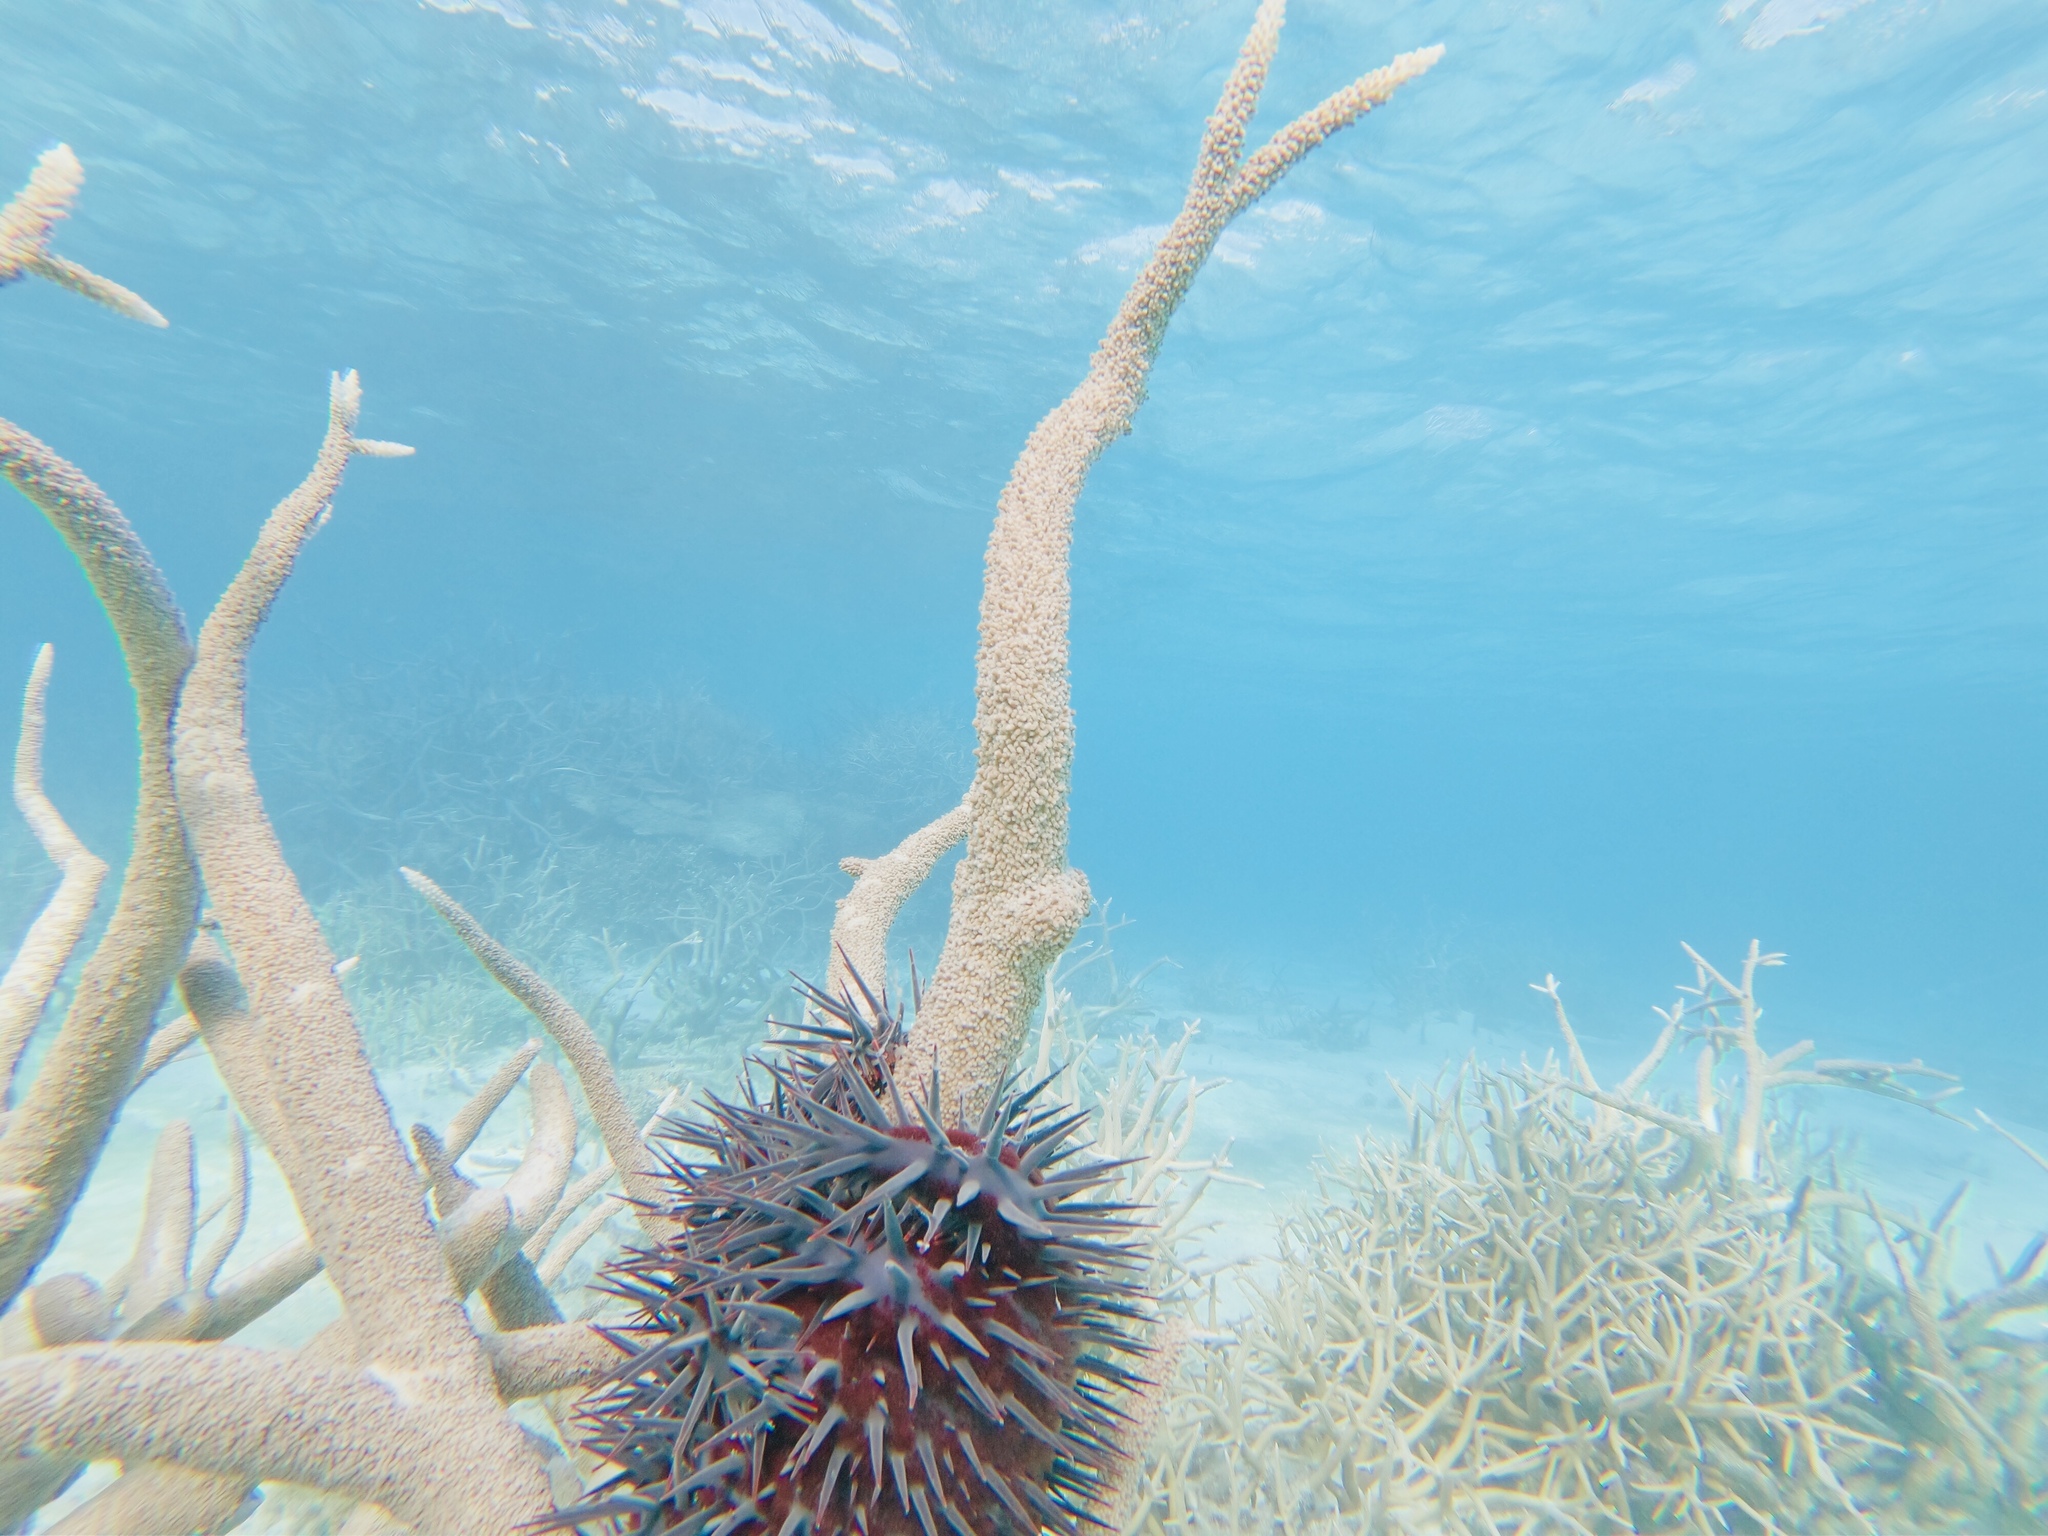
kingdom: Animalia
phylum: Echinodermata
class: Asteroidea
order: Valvatida
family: Acanthasteridae
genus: Acanthaster
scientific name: Acanthaster planci
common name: Crown-of-thorns
